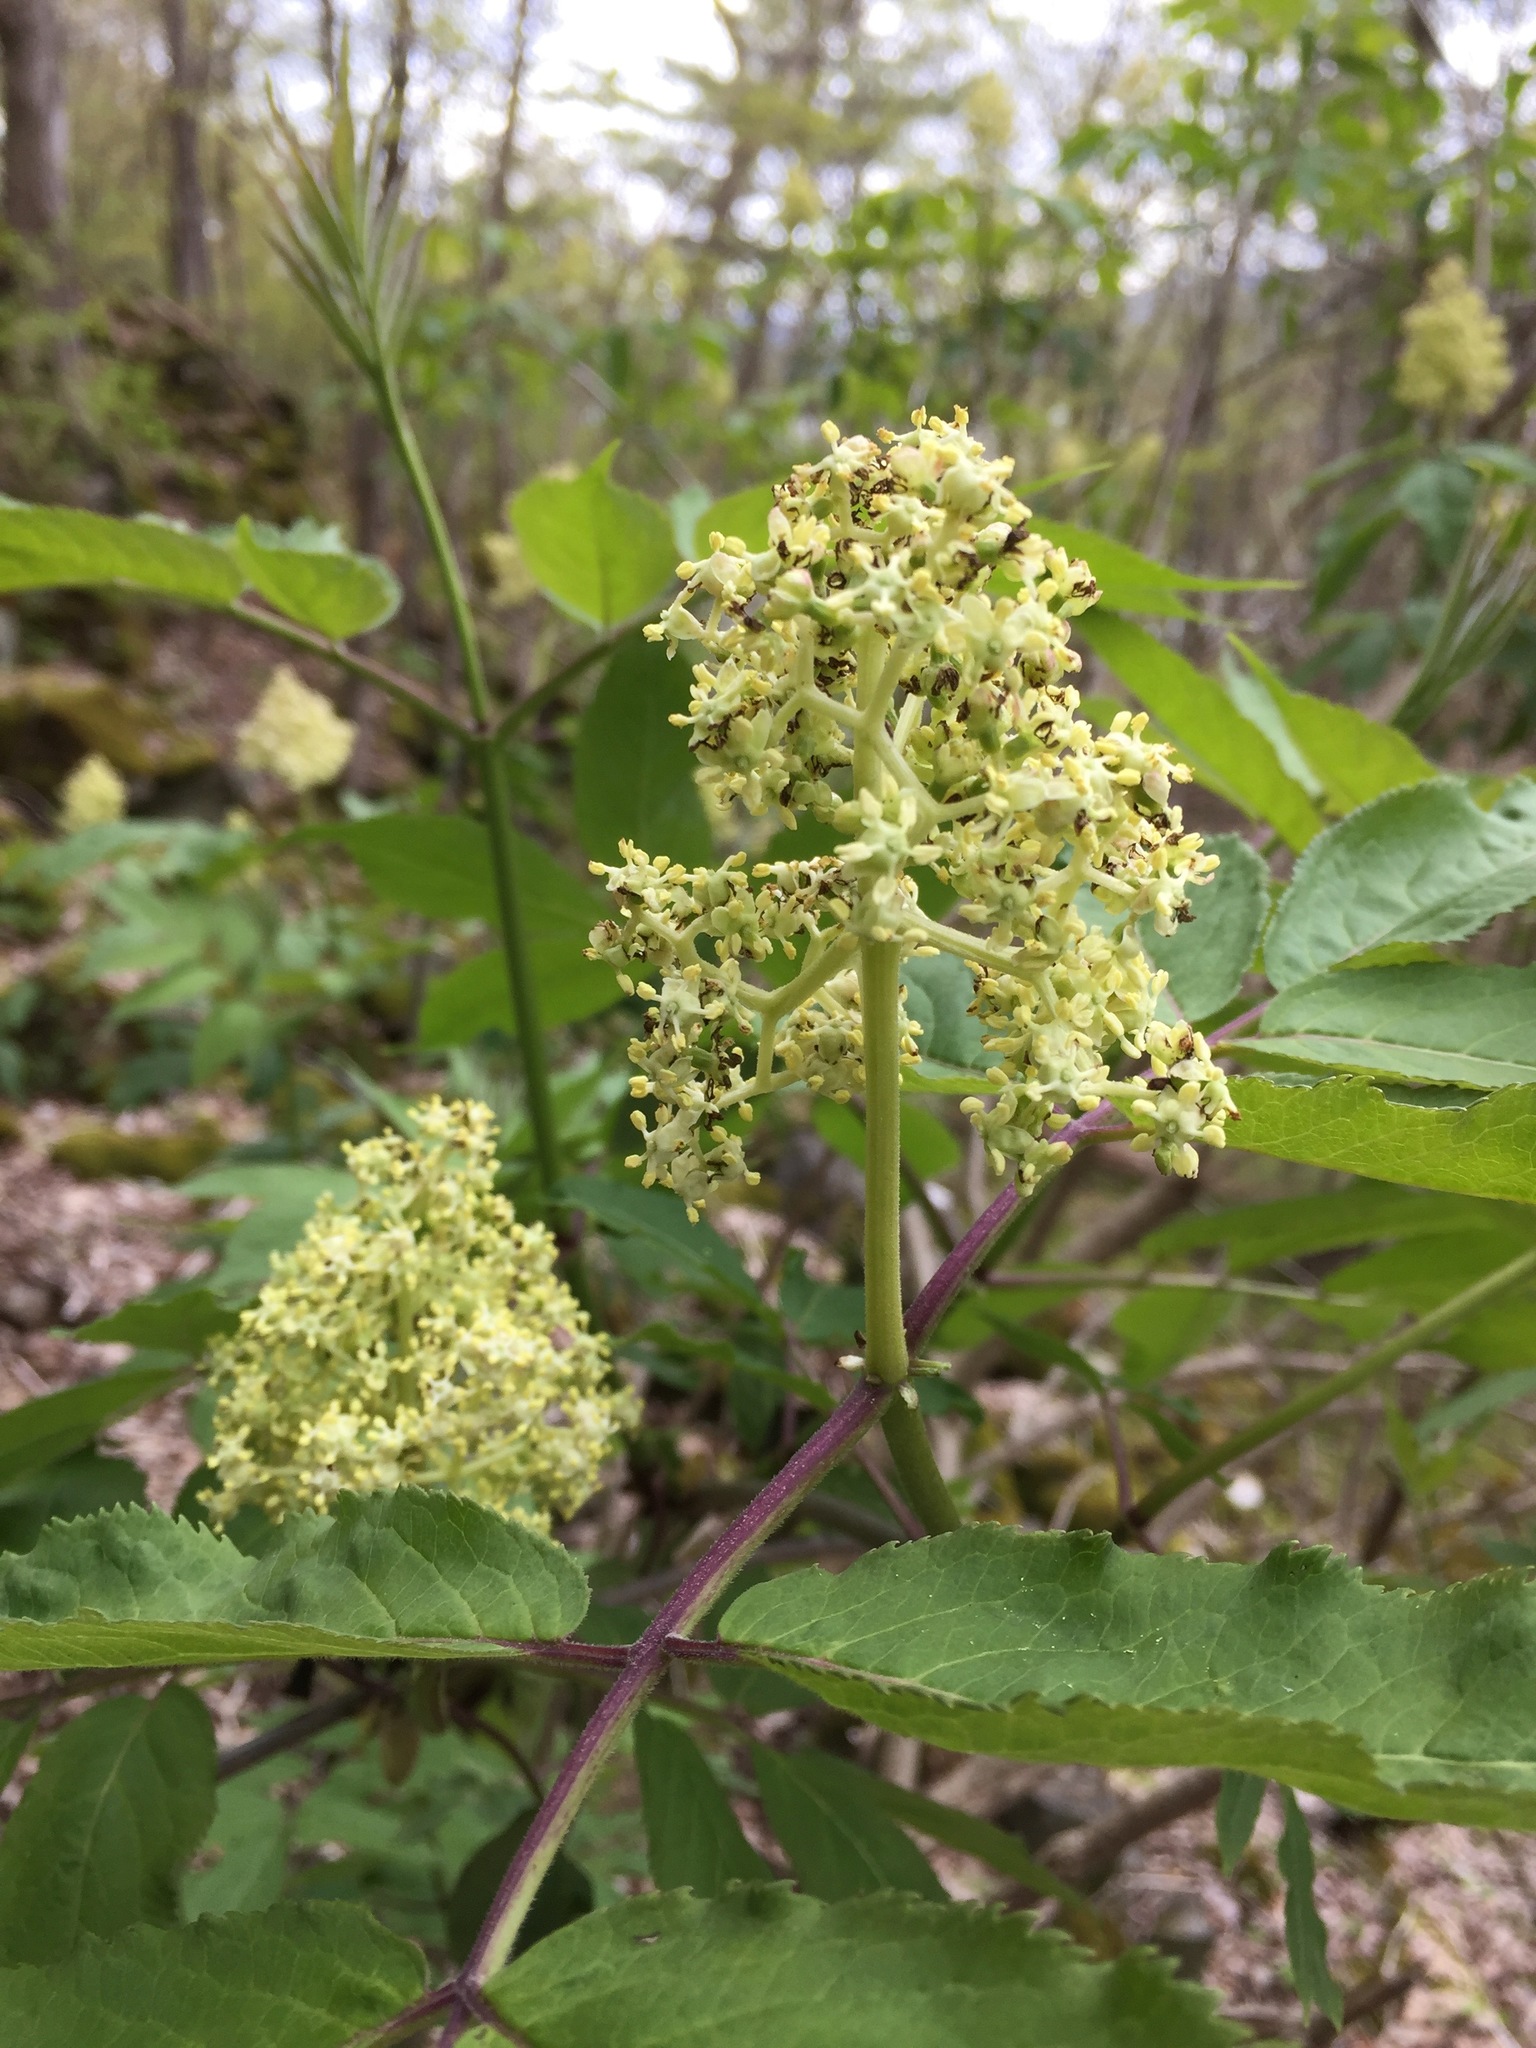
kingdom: Plantae
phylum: Tracheophyta
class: Magnoliopsida
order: Dipsacales
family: Viburnaceae
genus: Sambucus
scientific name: Sambucus racemosa
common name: Red-berried elder
